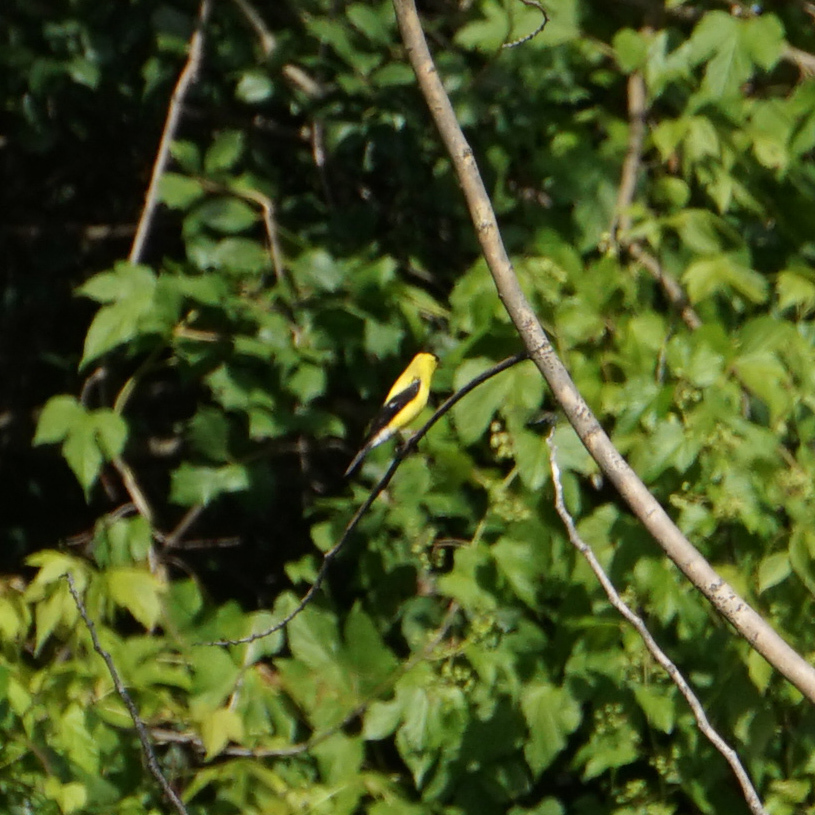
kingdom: Animalia
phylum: Chordata
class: Aves
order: Passeriformes
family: Fringillidae
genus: Spinus
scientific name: Spinus tristis
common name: American goldfinch
